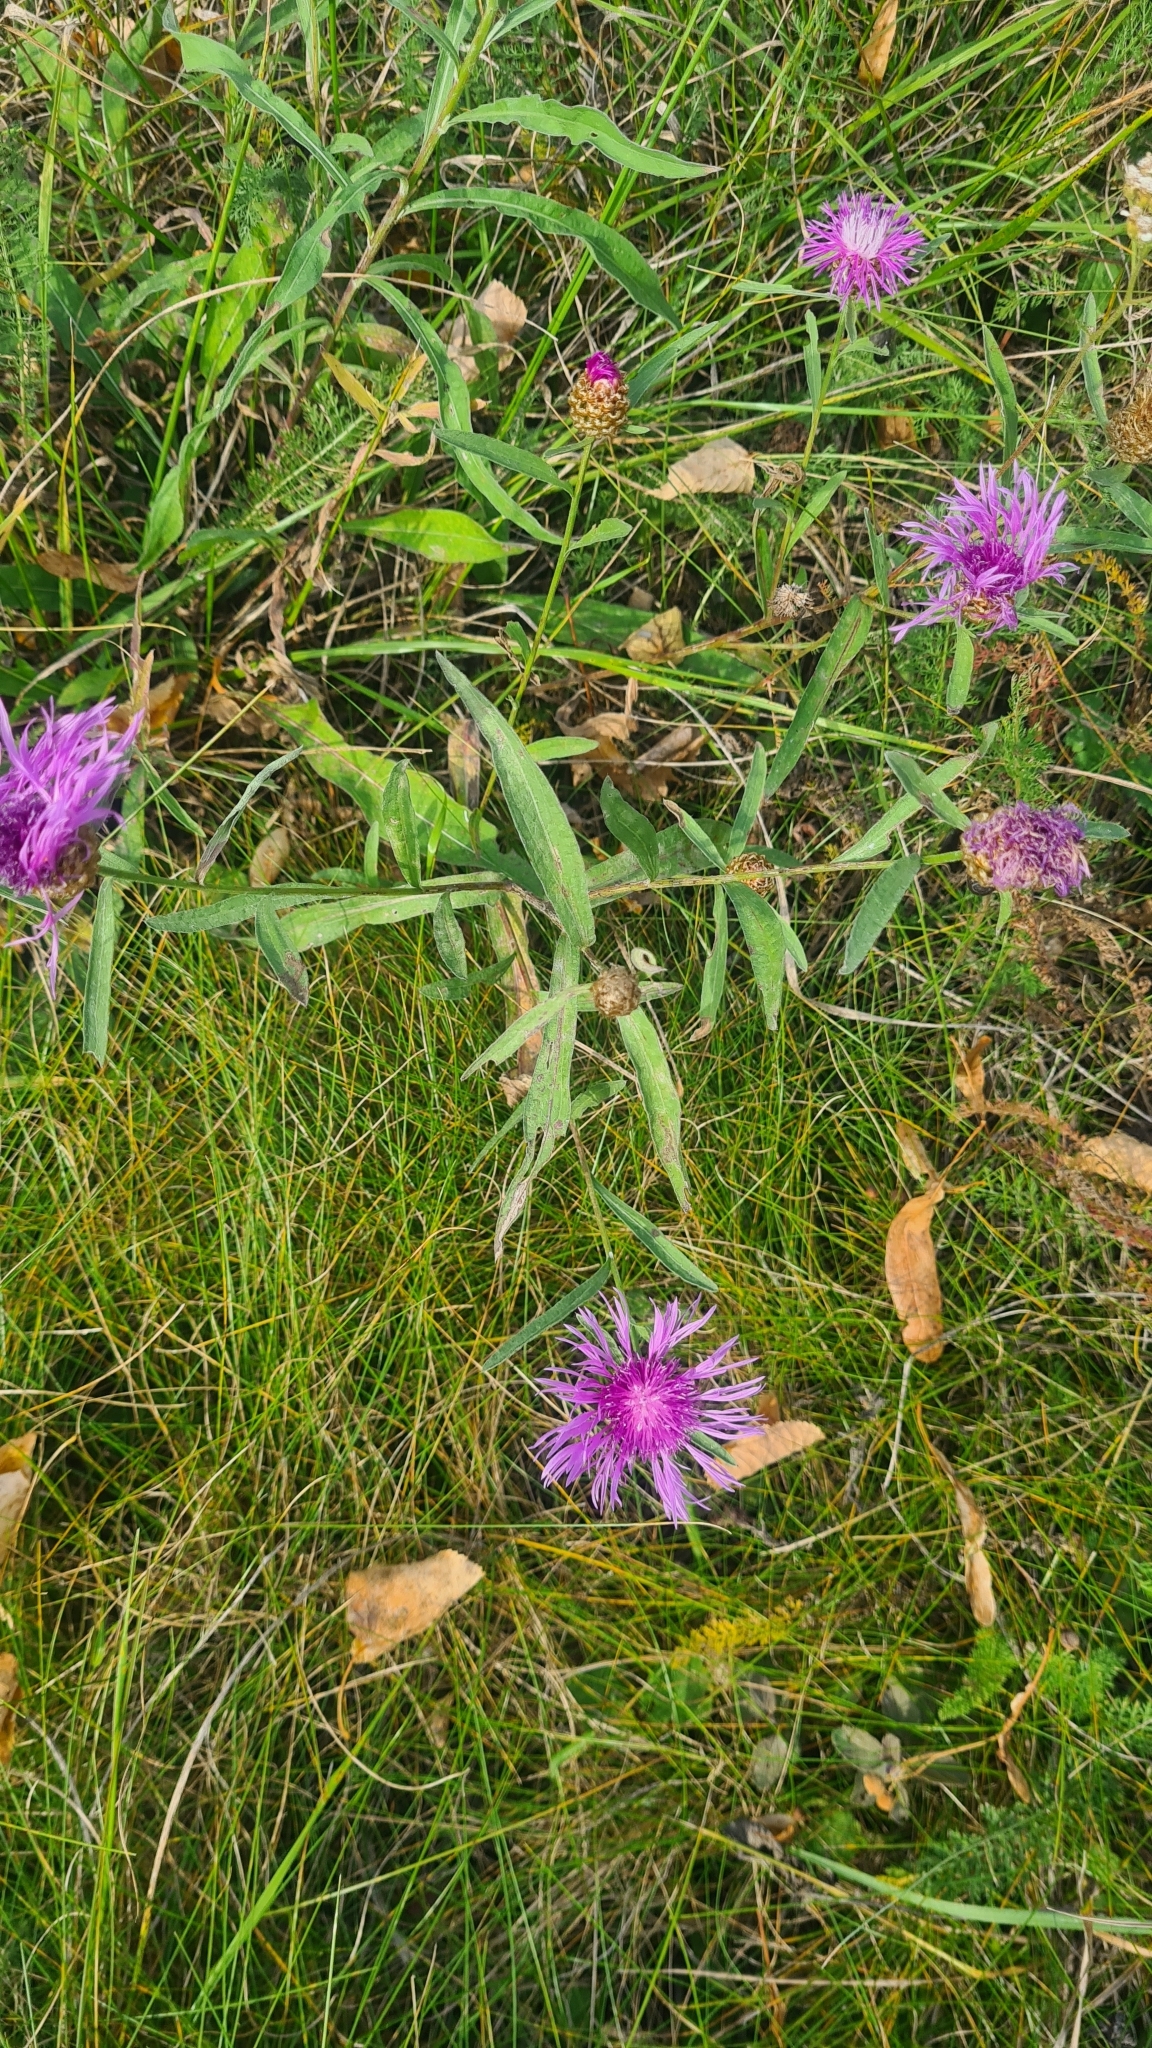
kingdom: Plantae
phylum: Tracheophyta
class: Magnoliopsida
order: Asterales
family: Asteraceae
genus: Centaurea
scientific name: Centaurea jacea
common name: Brown knapweed
